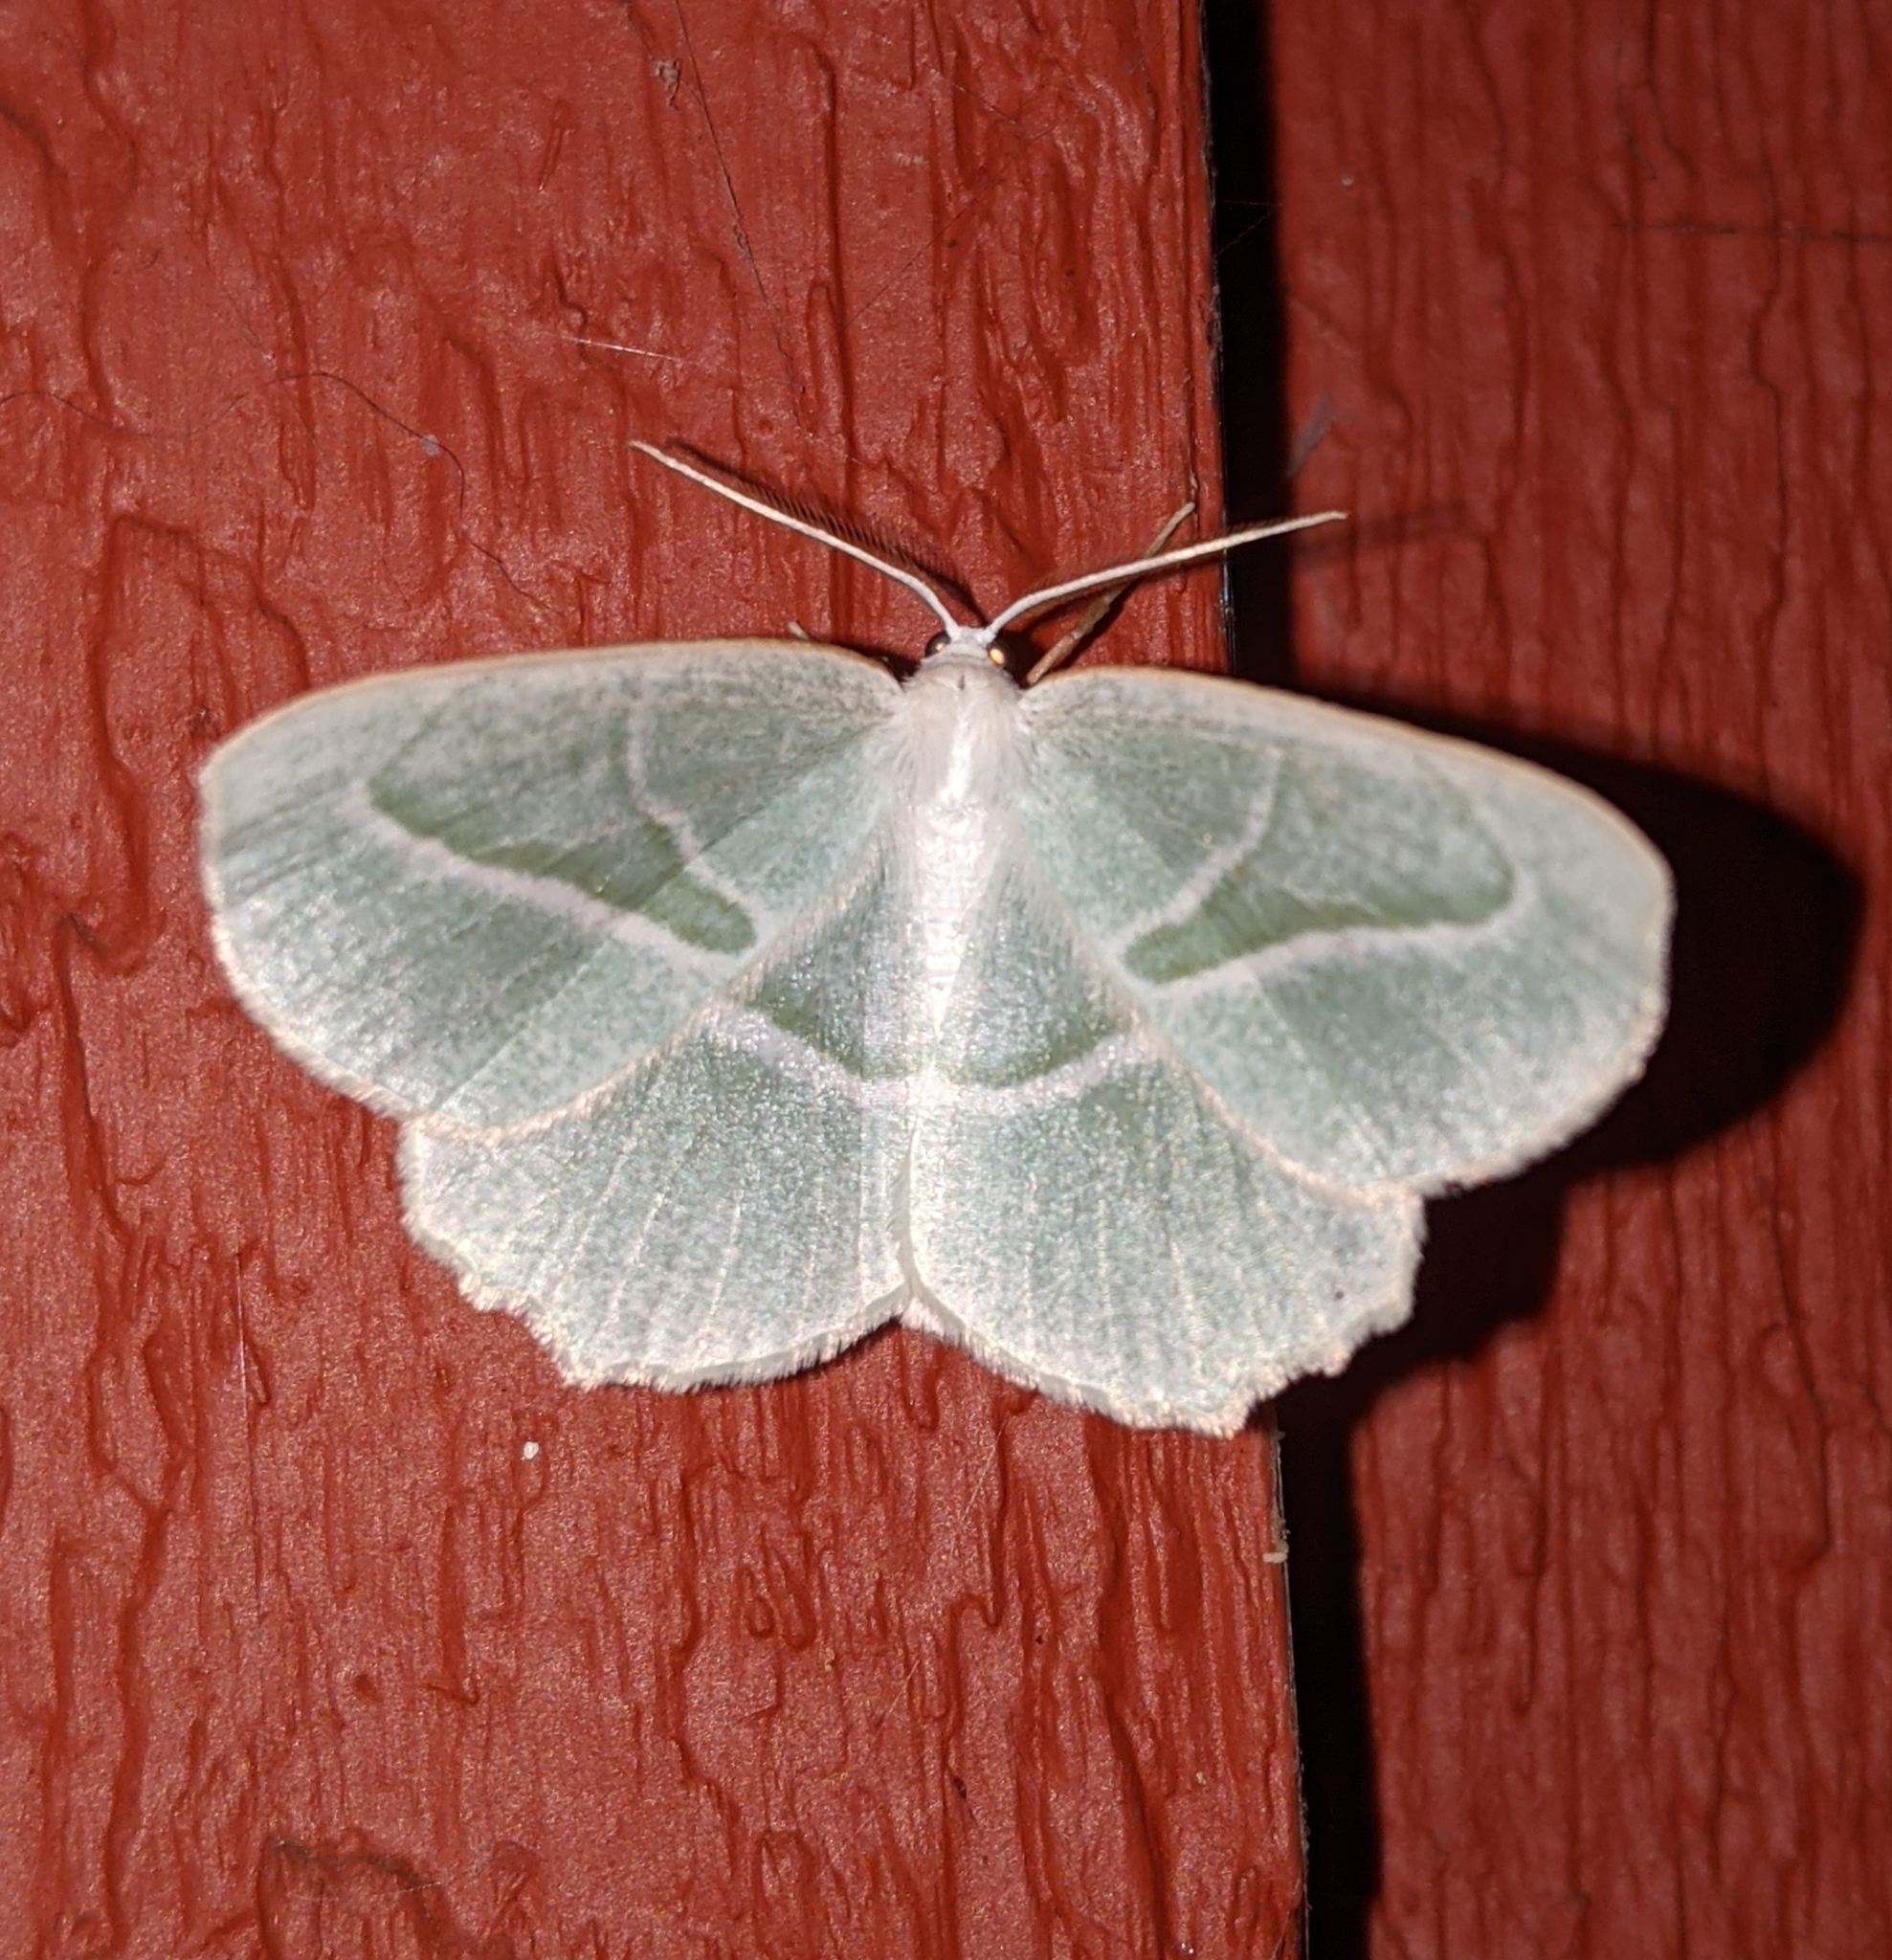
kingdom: Animalia
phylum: Arthropoda
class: Insecta
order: Lepidoptera
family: Geometridae
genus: Campaea
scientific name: Campaea perlata
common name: Fringed looper
